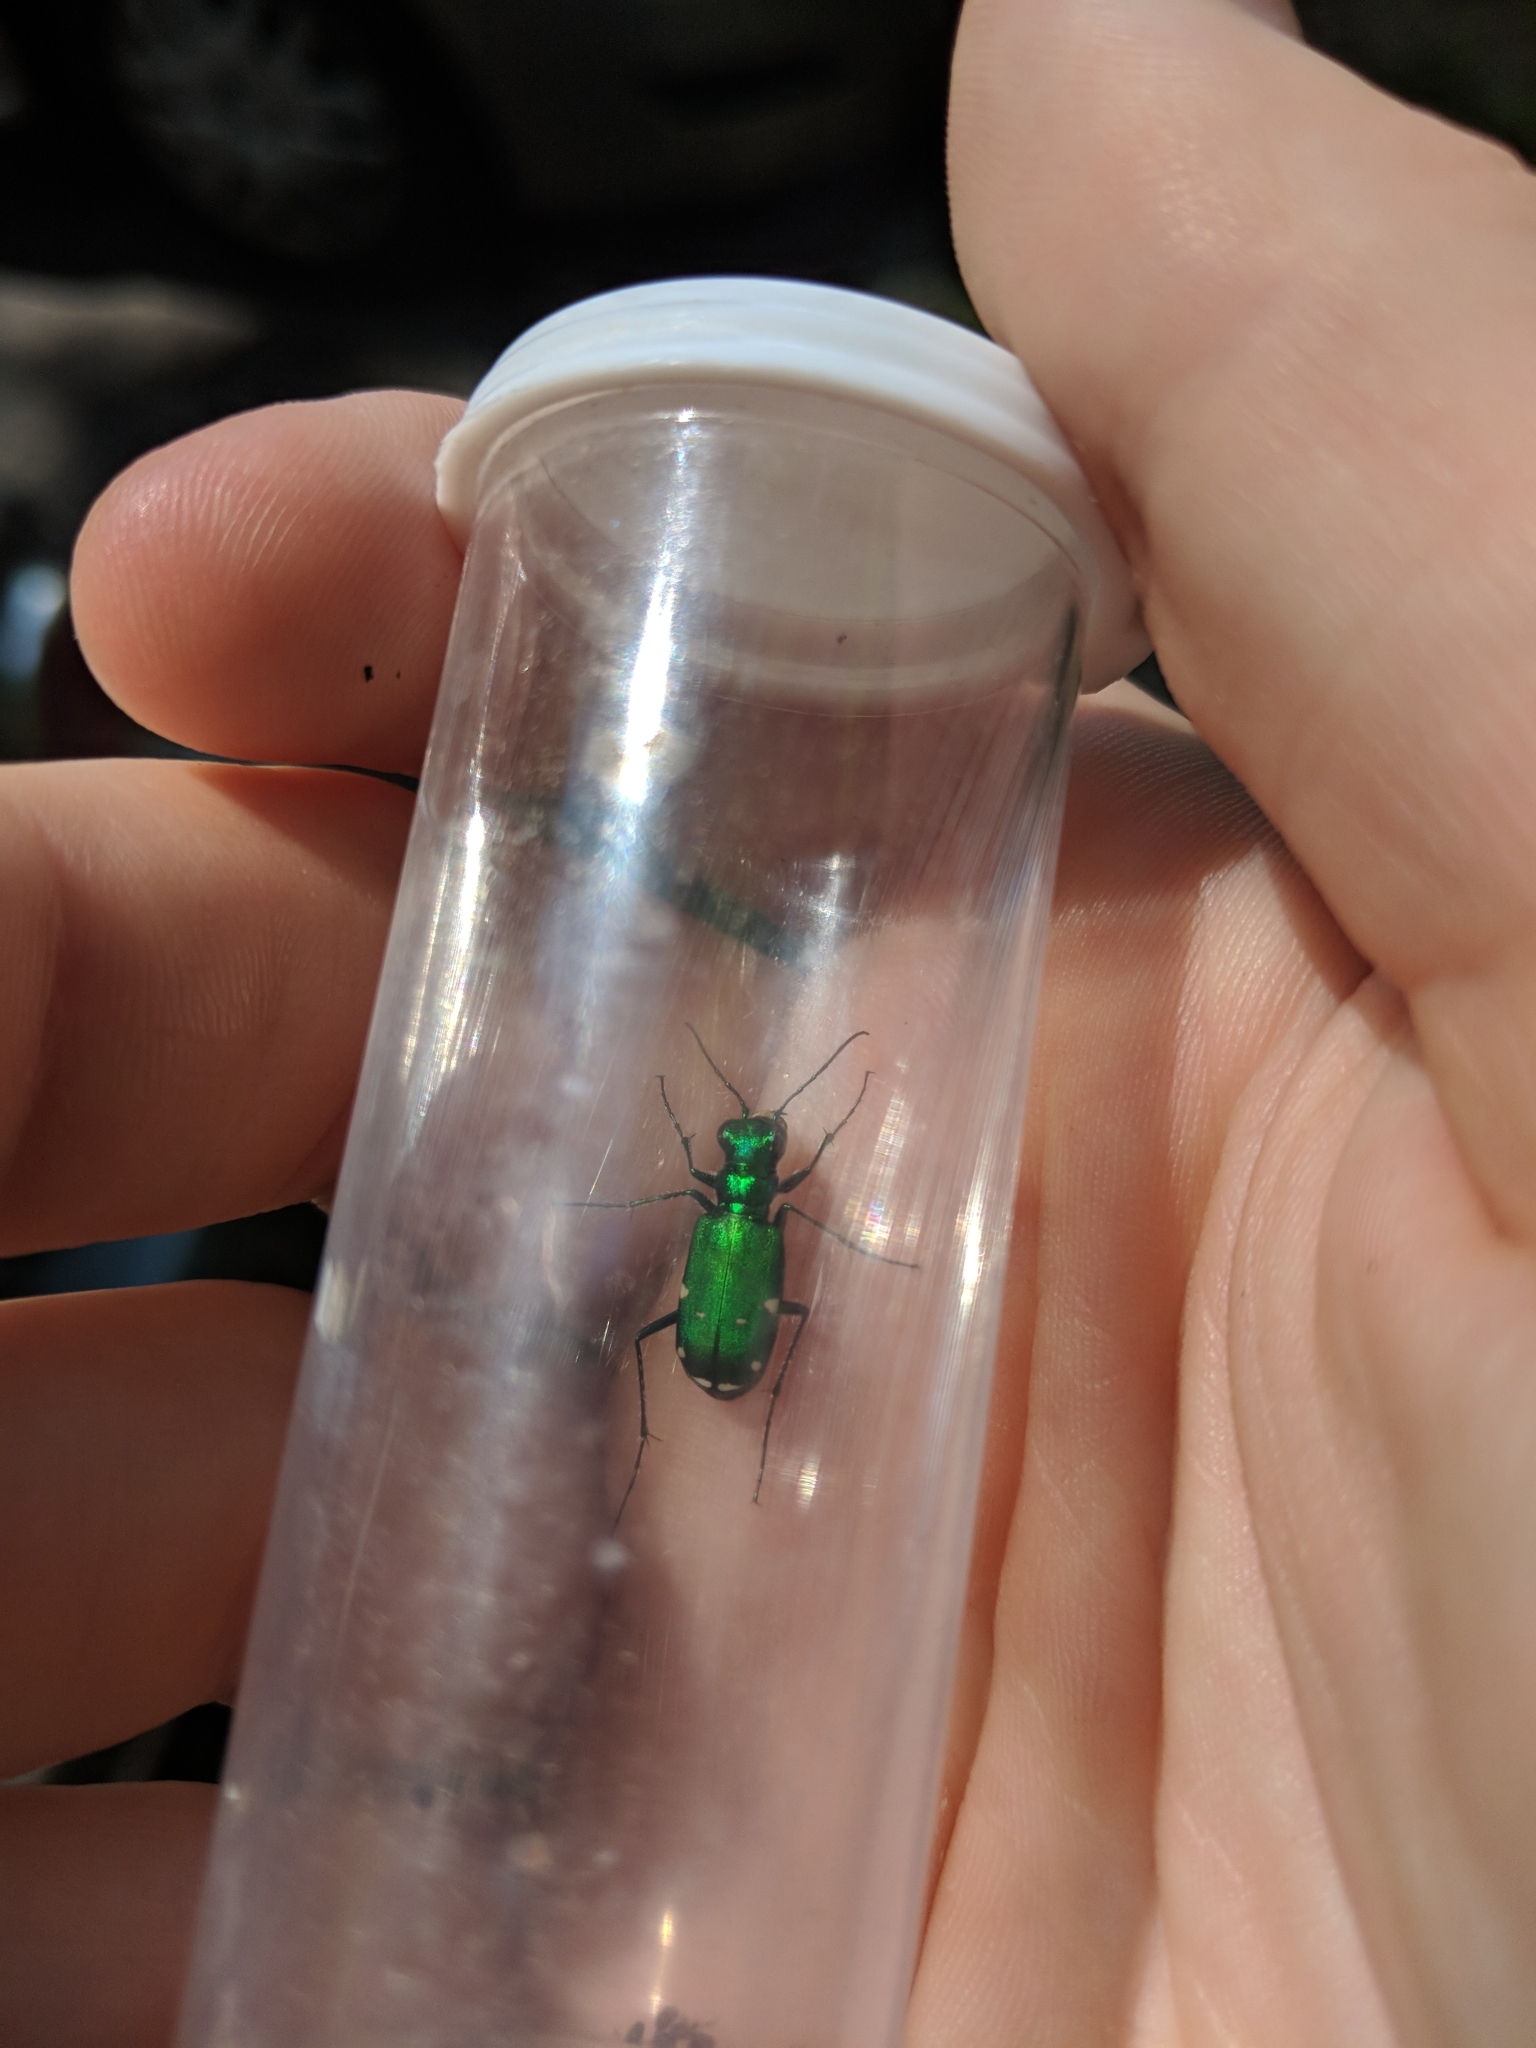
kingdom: Animalia
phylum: Arthropoda
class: Insecta
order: Coleoptera
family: Carabidae
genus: Cicindela
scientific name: Cicindela sexguttata
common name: Six-spotted tiger beetle
